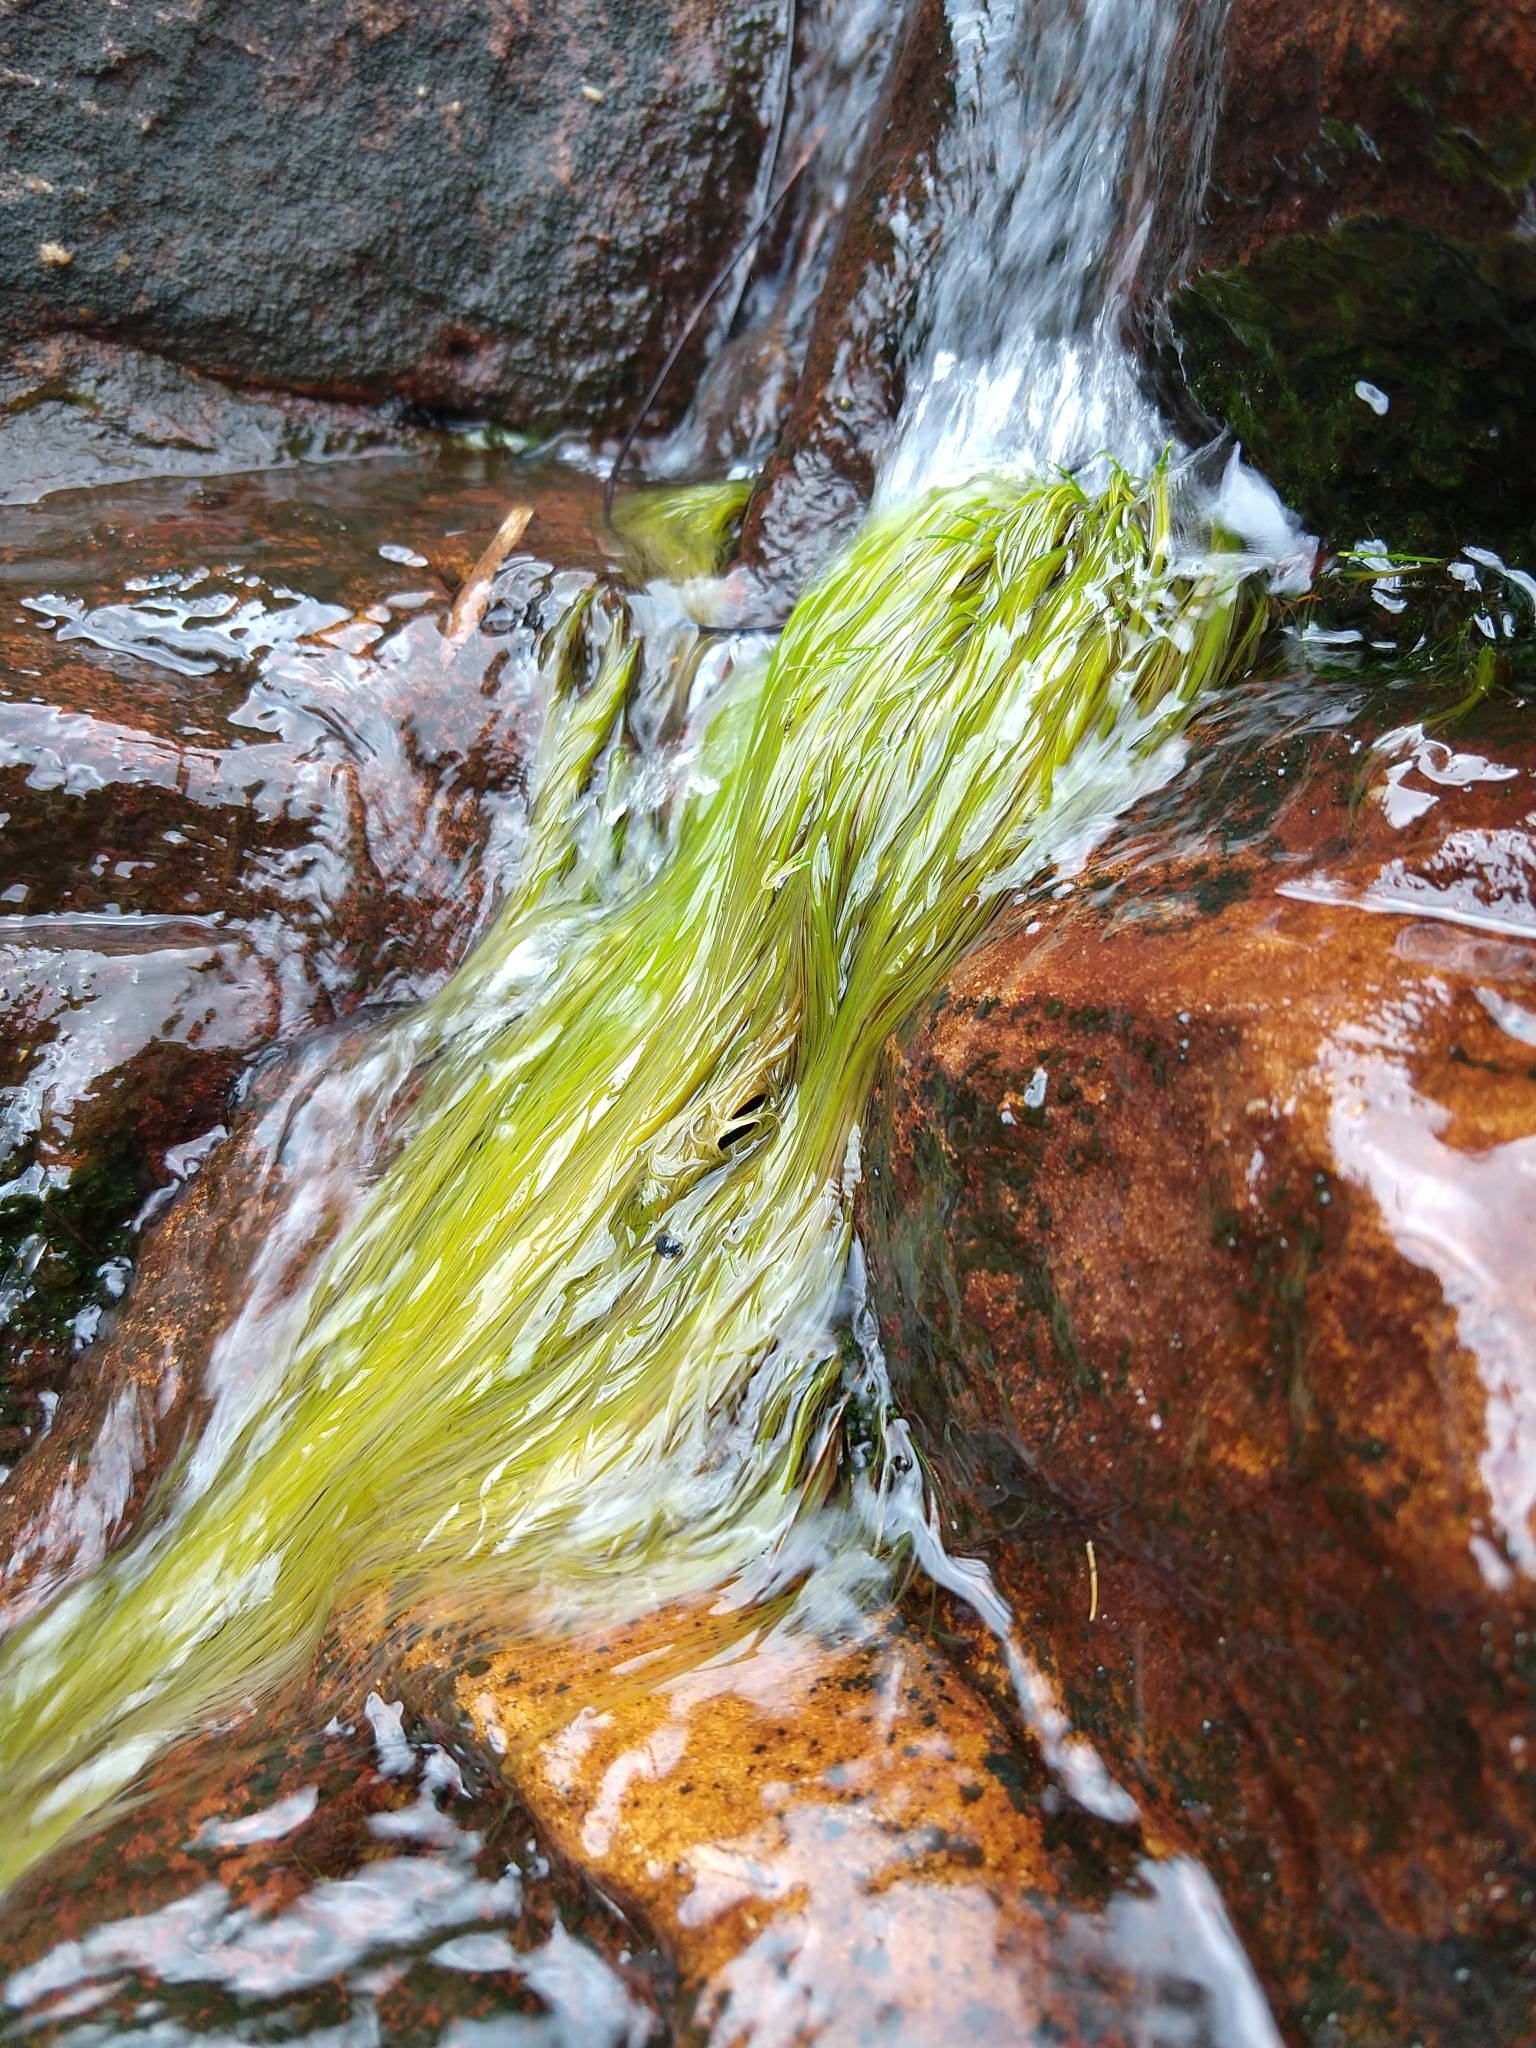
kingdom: Plantae
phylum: Tracheophyta
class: Liliopsida
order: Poales
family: Cyperaceae
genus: Isolepis
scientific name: Isolepis digitata
